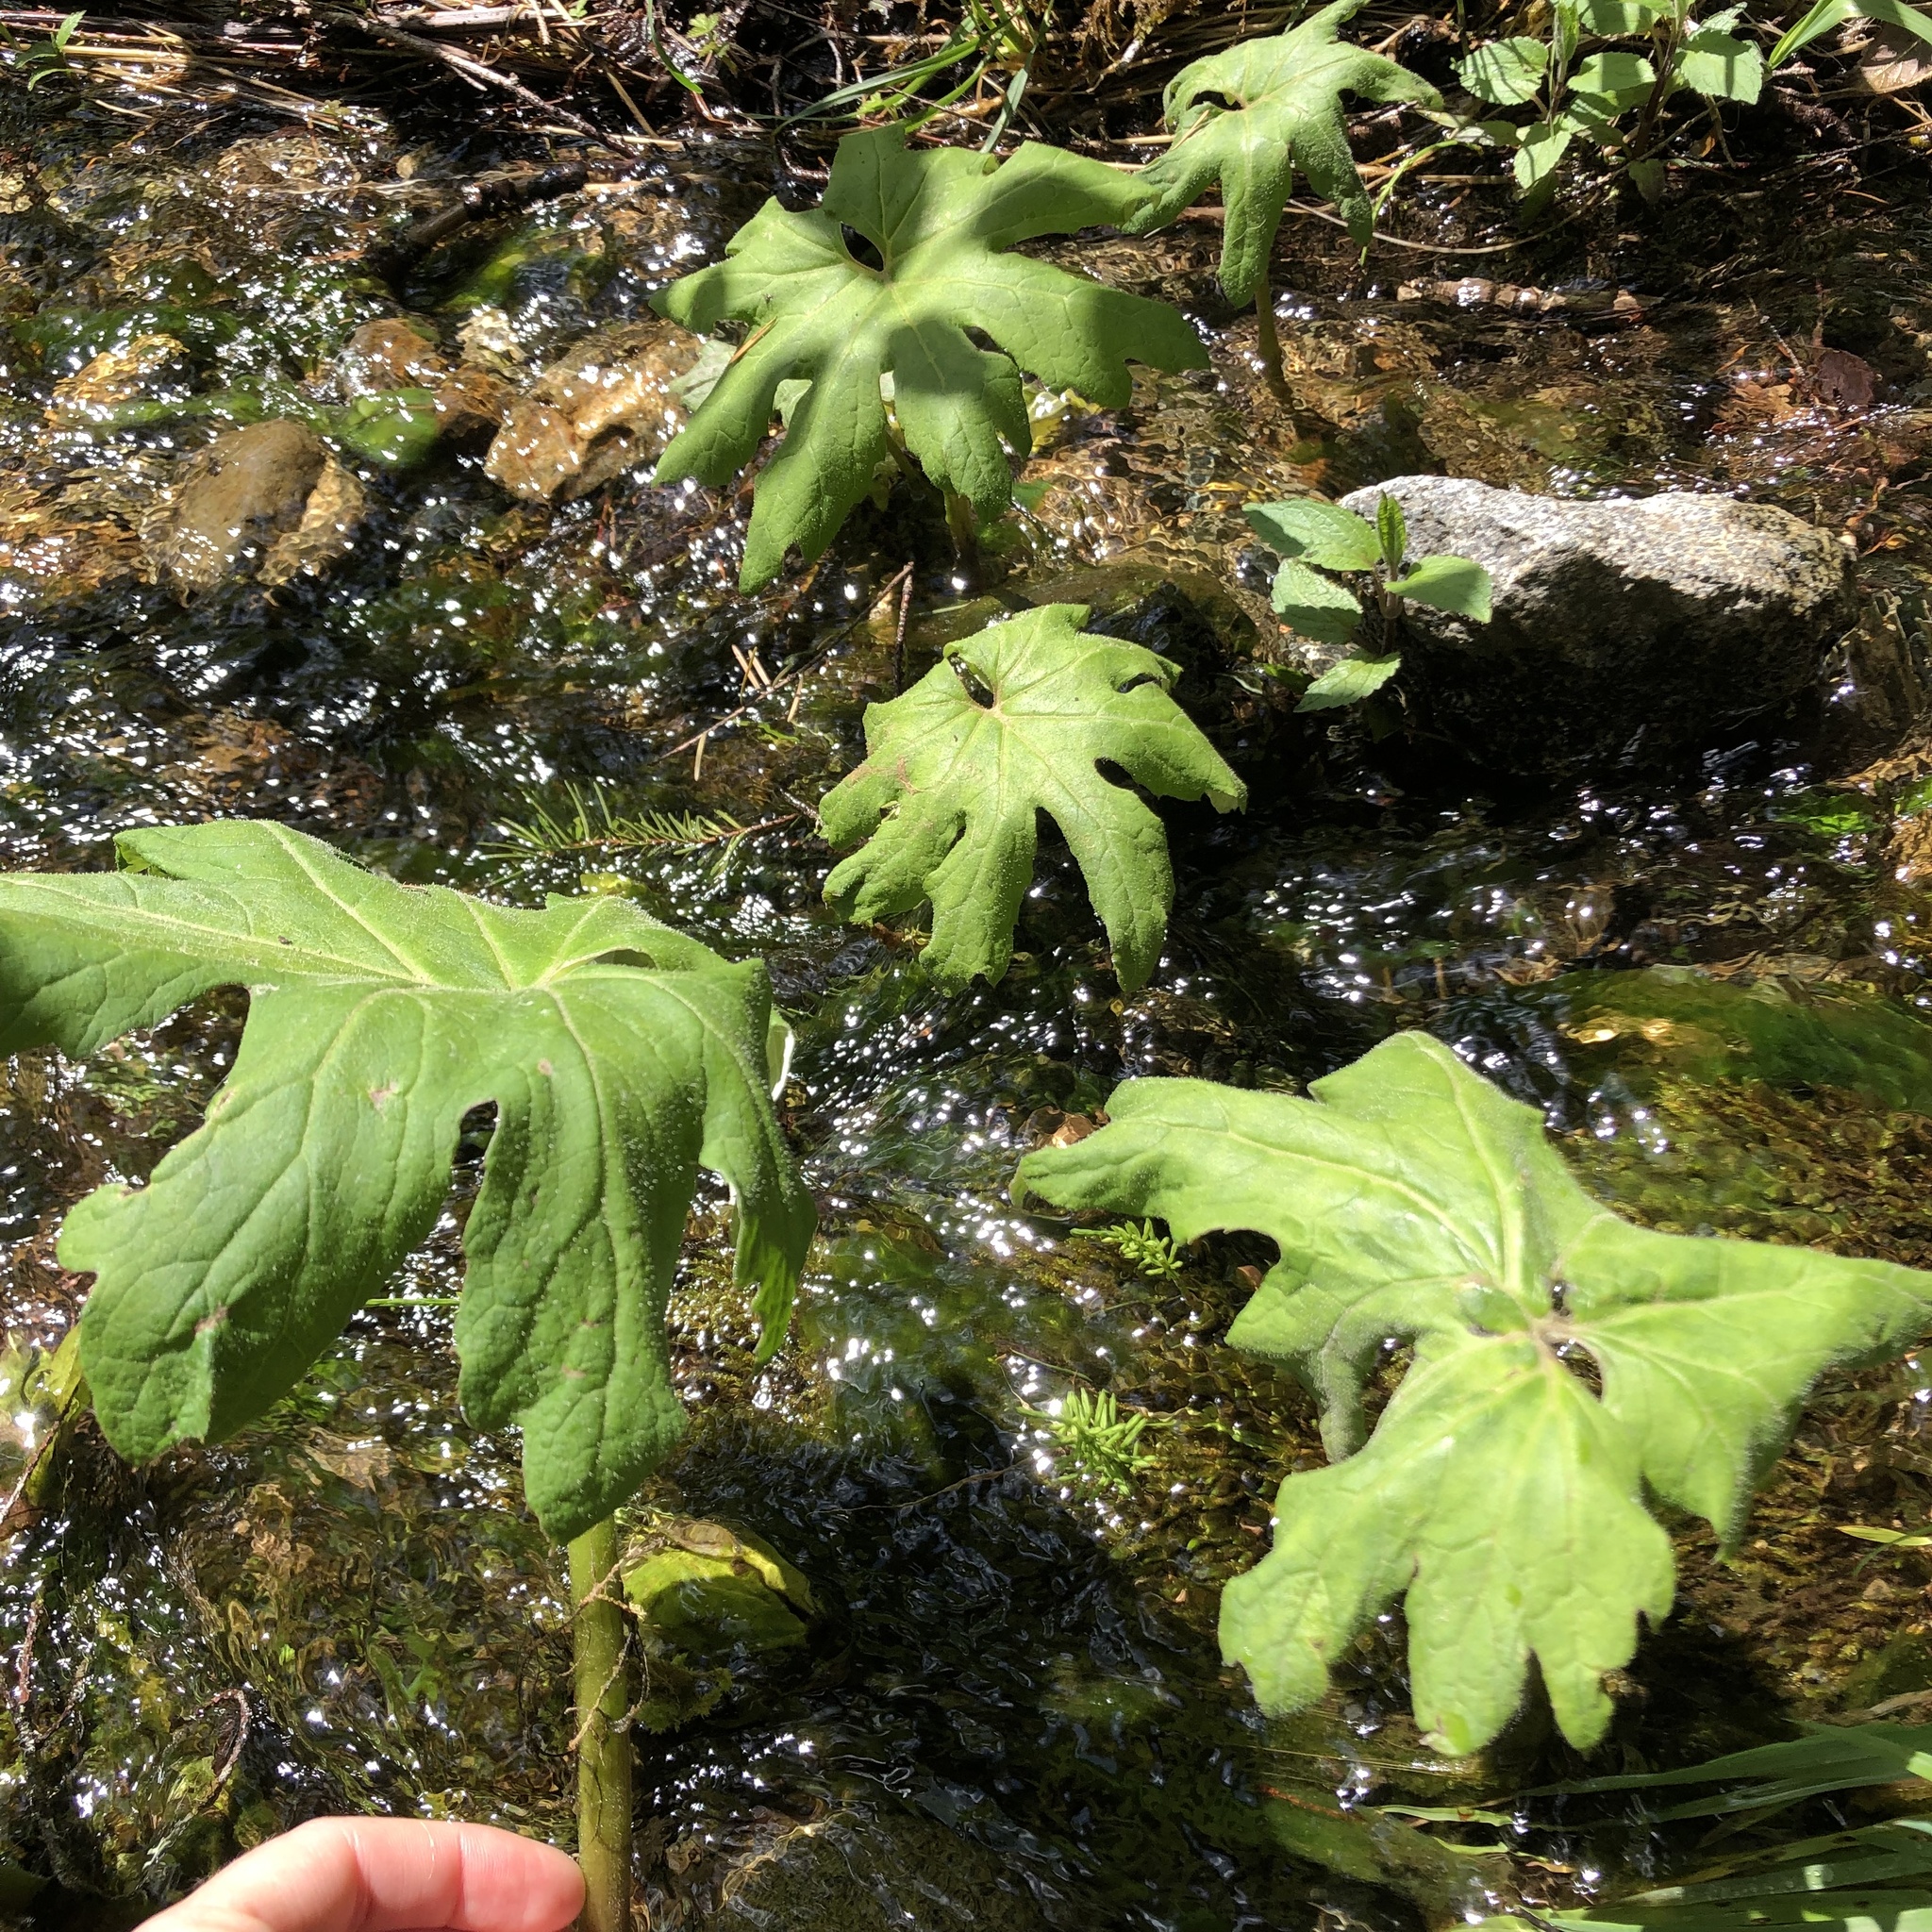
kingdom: Plantae
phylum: Tracheophyta
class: Magnoliopsida
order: Asterales
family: Asteraceae
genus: Petasites
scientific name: Petasites frigidus
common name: Arctic butterbur
